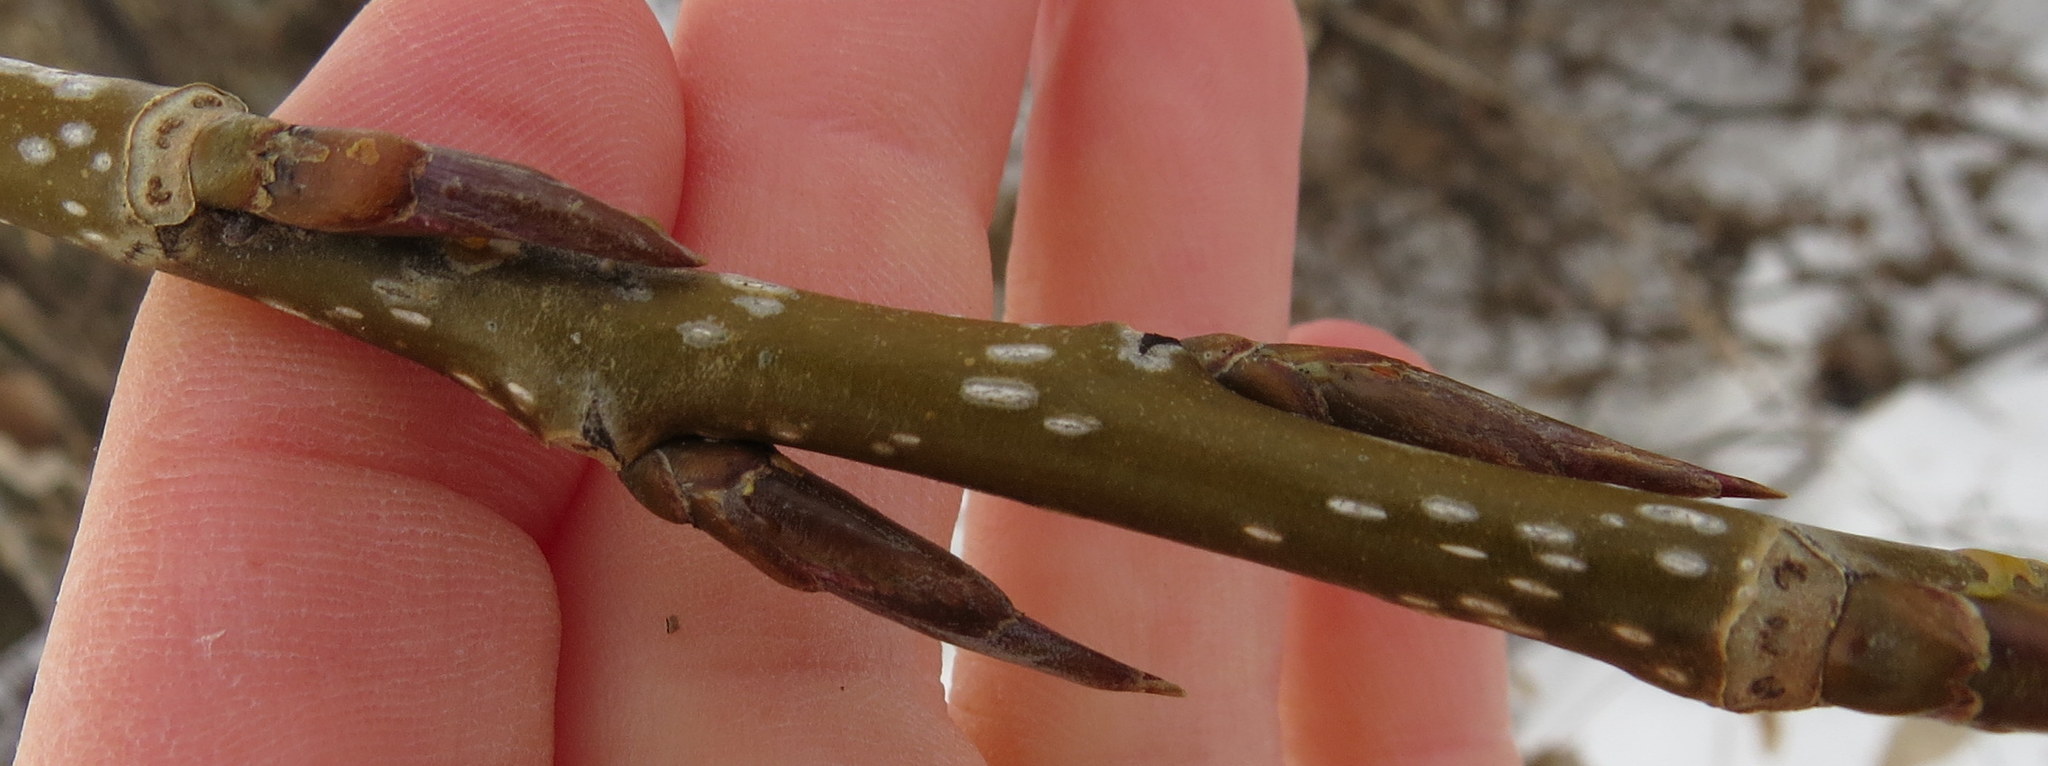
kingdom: Plantae
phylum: Tracheophyta
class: Magnoliopsida
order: Malpighiales
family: Salicaceae
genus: Populus
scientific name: Populus deltoides
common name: Eastern cottonwood
